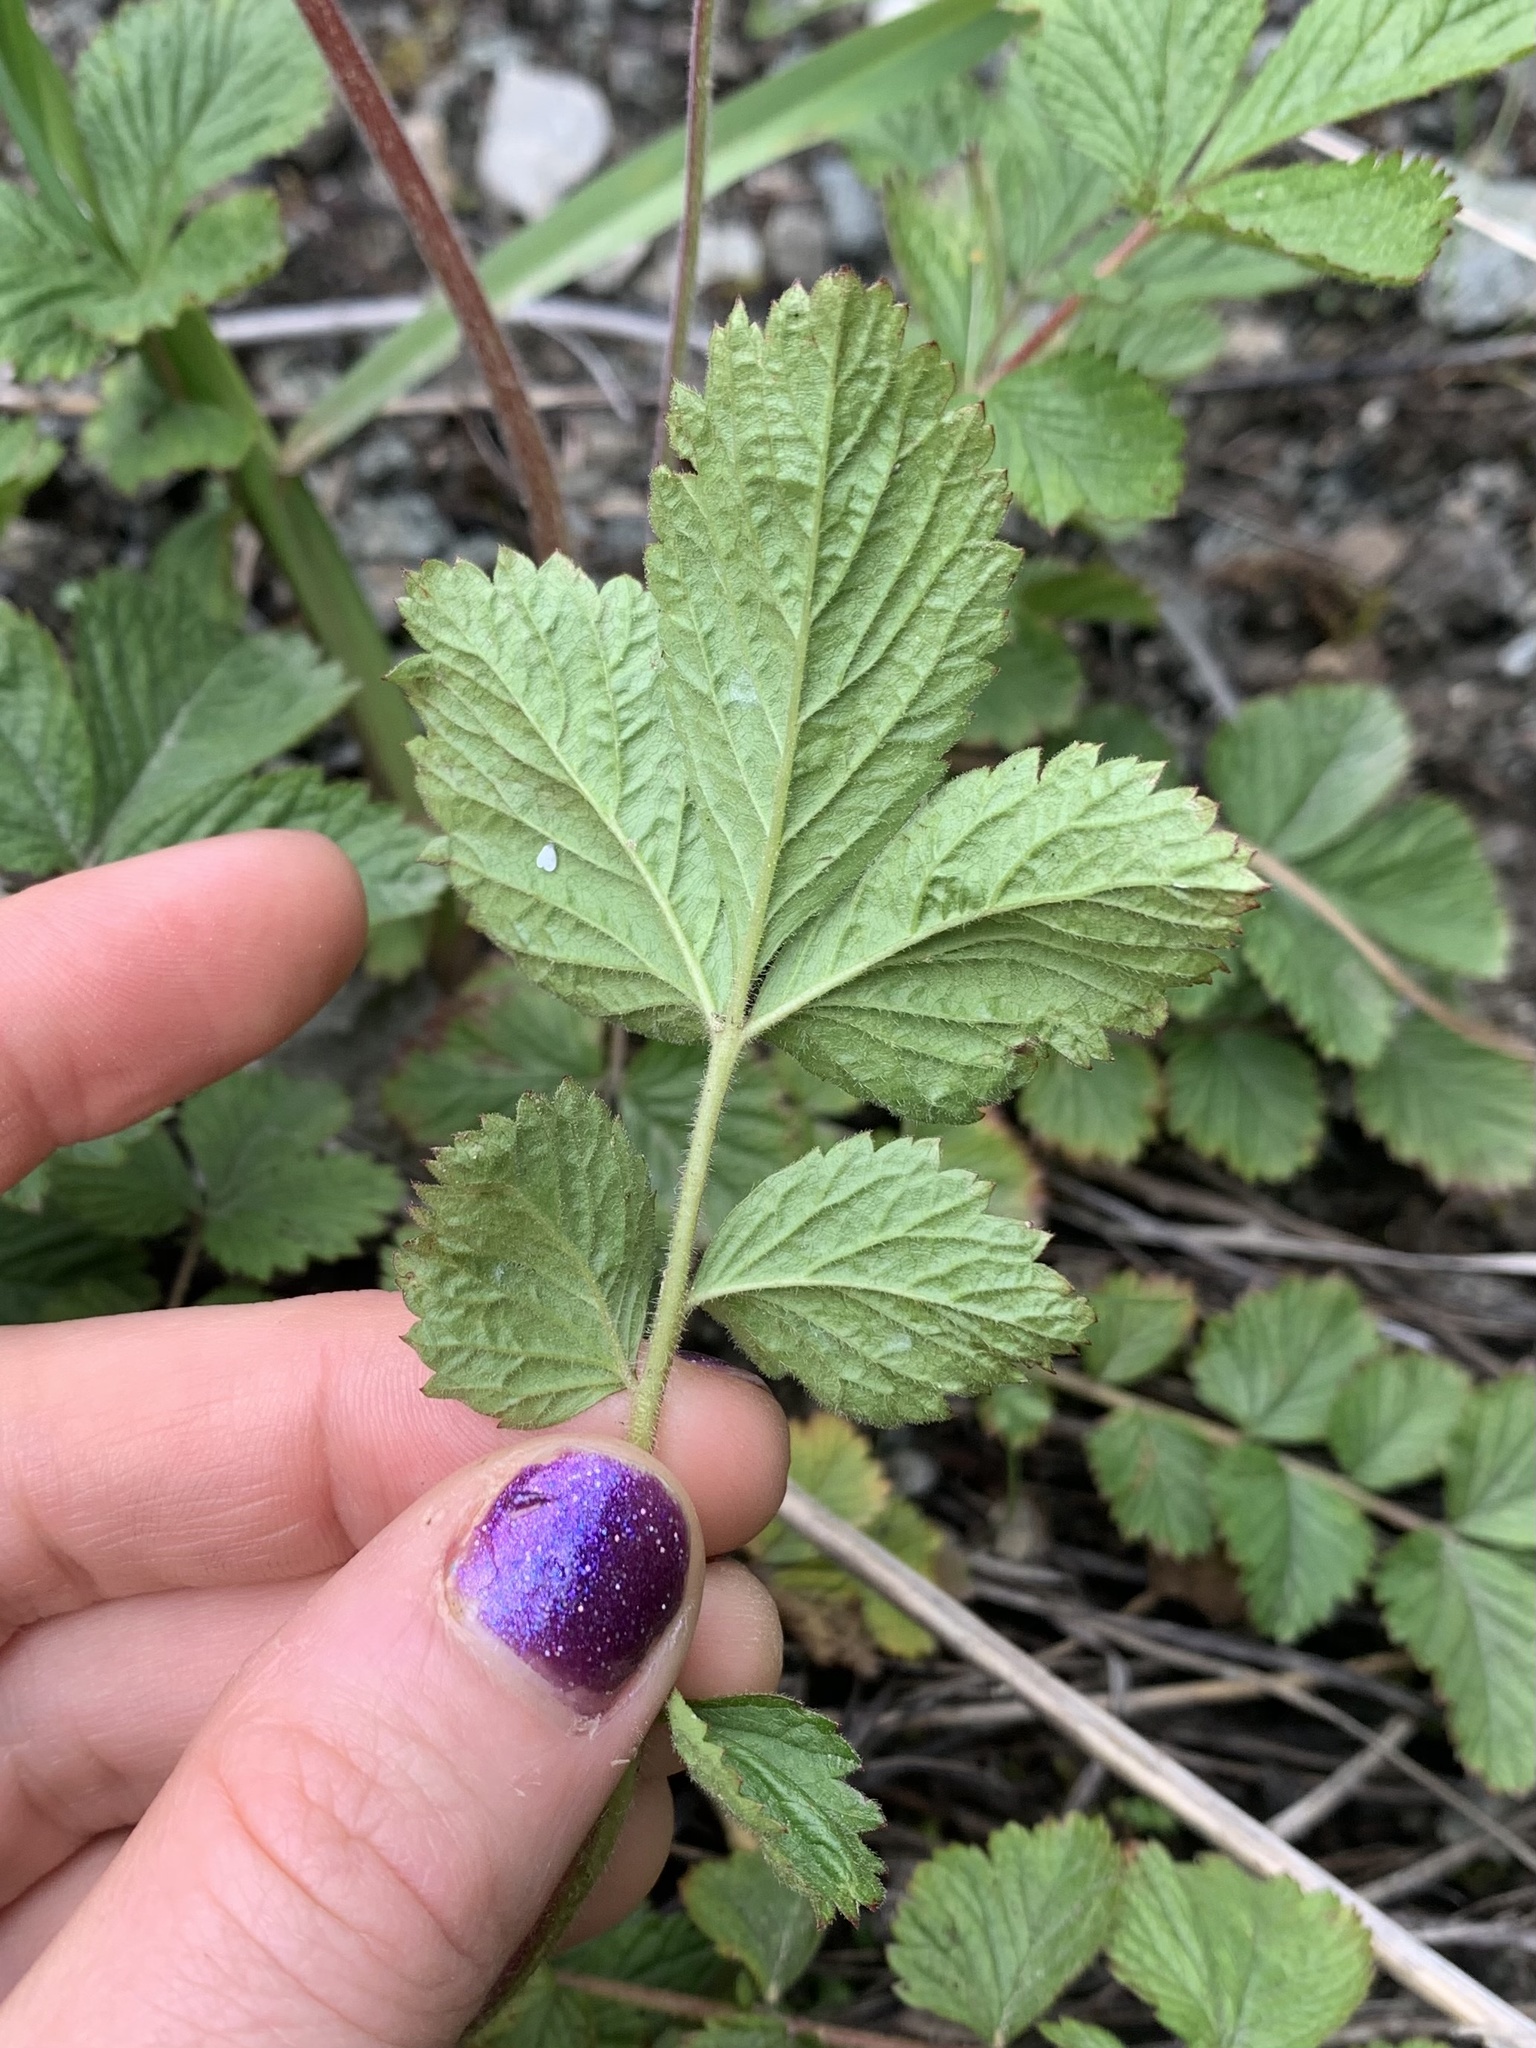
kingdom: Plantae
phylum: Tracheophyta
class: Magnoliopsida
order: Rosales
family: Rosaceae
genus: Drymocallis
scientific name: Drymocallis glandulosa
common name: Sticky cinquefoil
